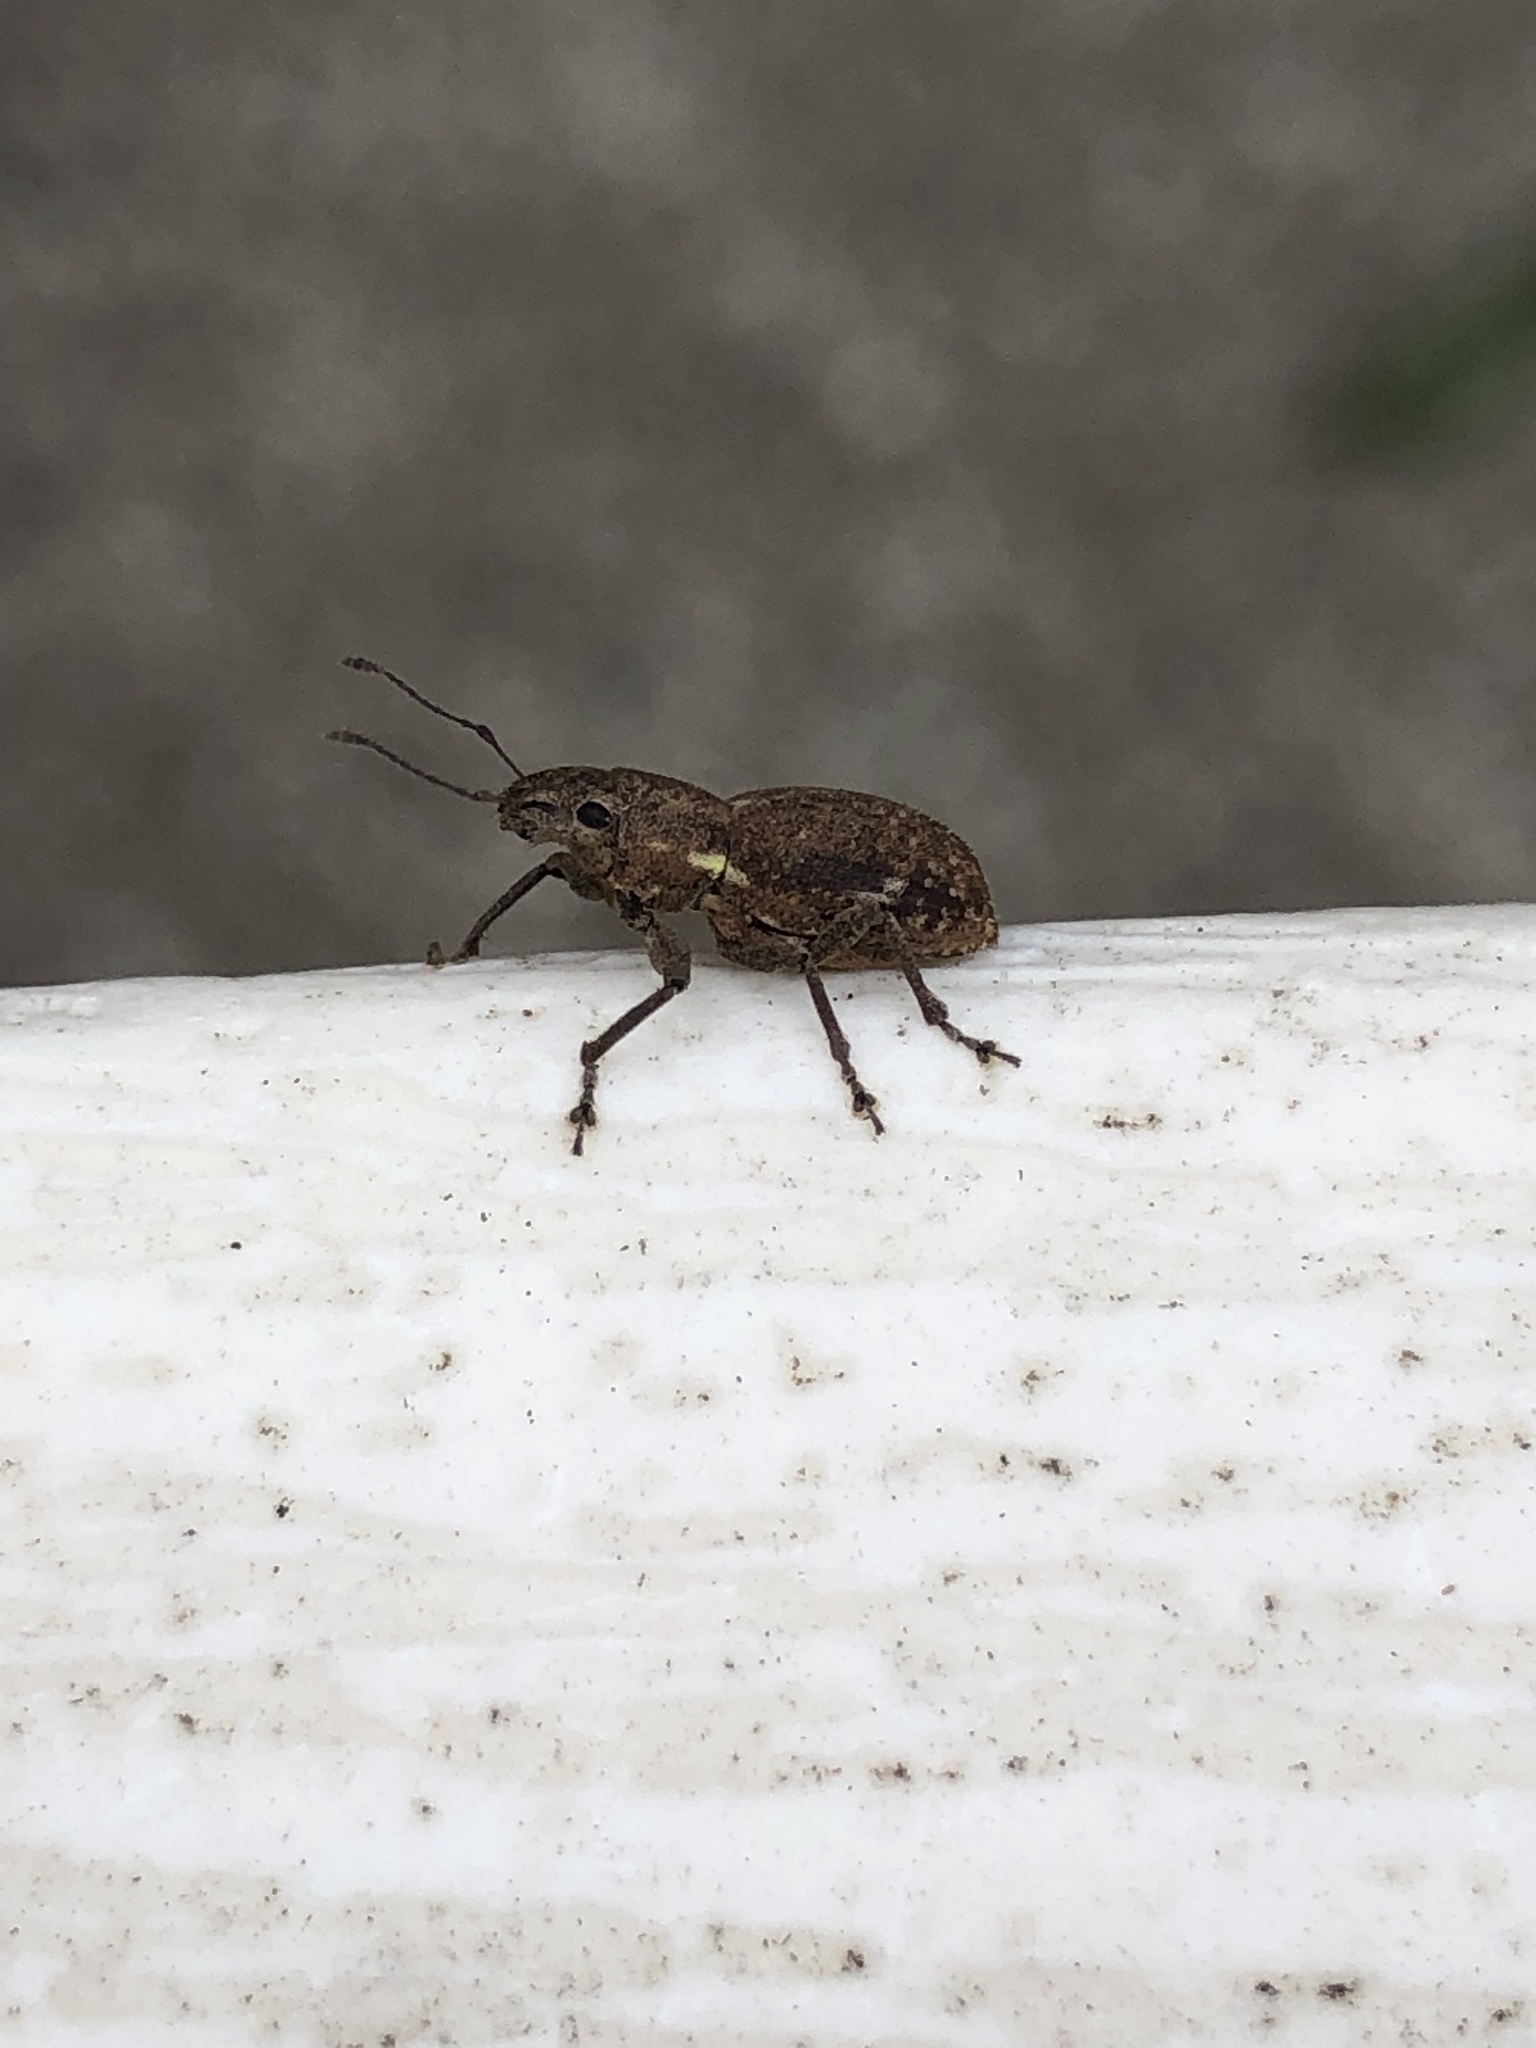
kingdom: Animalia
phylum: Arthropoda
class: Insecta
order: Coleoptera
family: Curculionidae
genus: Naupactus
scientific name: Naupactus cervinus
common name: Fuller rose beetle
